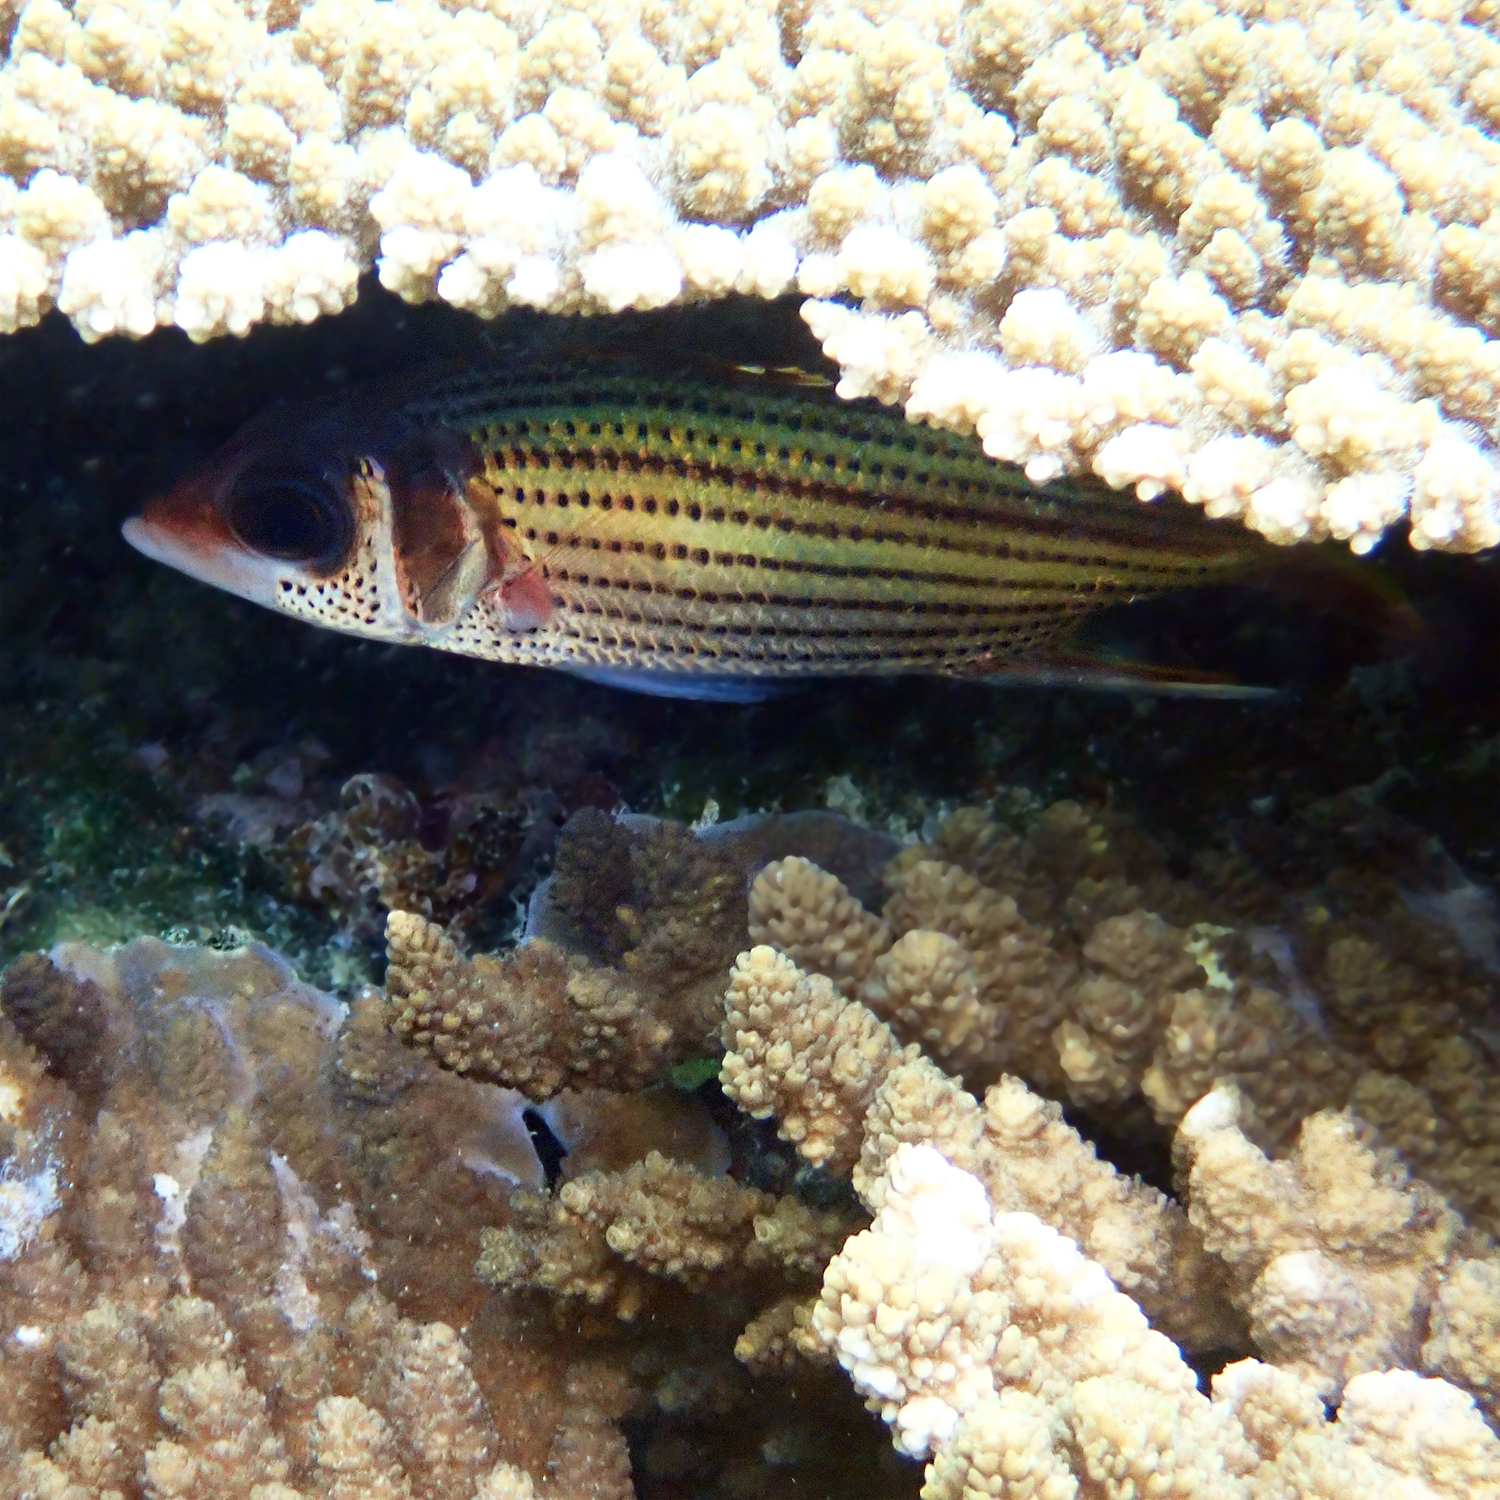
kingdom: Animalia
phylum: Chordata
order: Beryciformes
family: Holocentridae
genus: Neoniphon
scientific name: Neoniphon sammara
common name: Sammara squirrelfish
